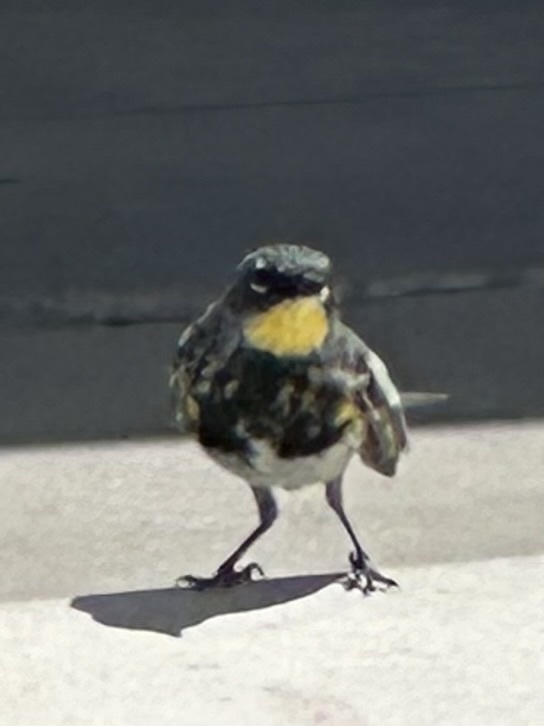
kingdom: Animalia
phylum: Chordata
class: Aves
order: Passeriformes
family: Parulidae
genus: Setophaga
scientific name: Setophaga coronata
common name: Myrtle warbler
